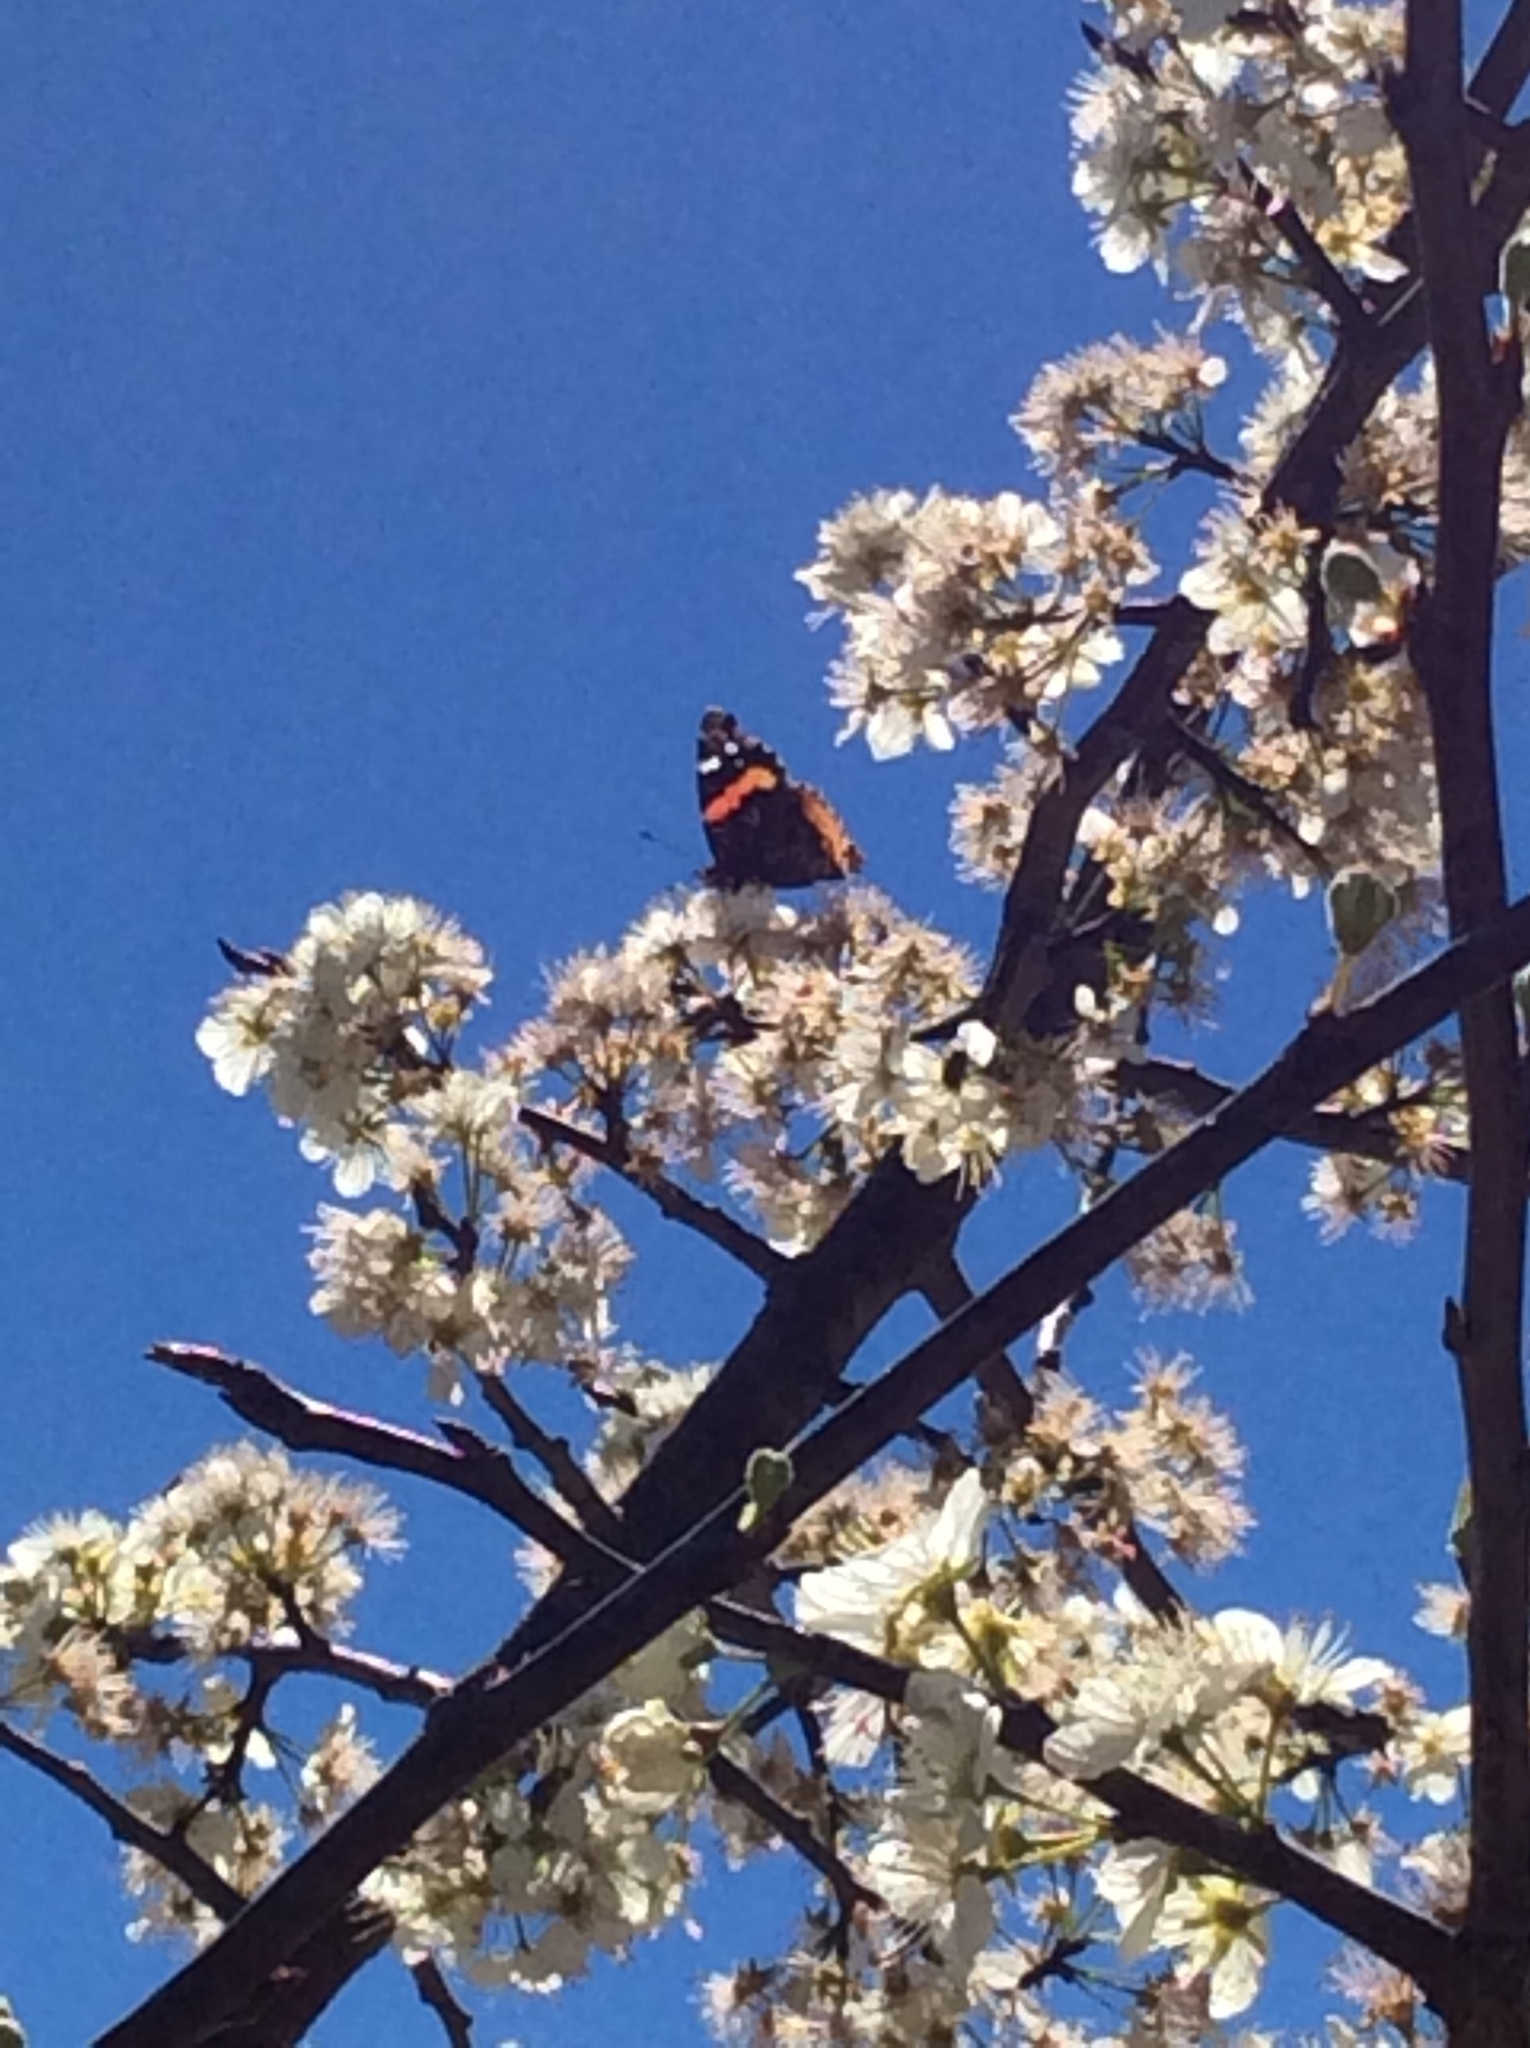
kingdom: Animalia
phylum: Arthropoda
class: Insecta
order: Lepidoptera
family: Nymphalidae
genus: Vanessa
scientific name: Vanessa atalanta
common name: Red admiral
